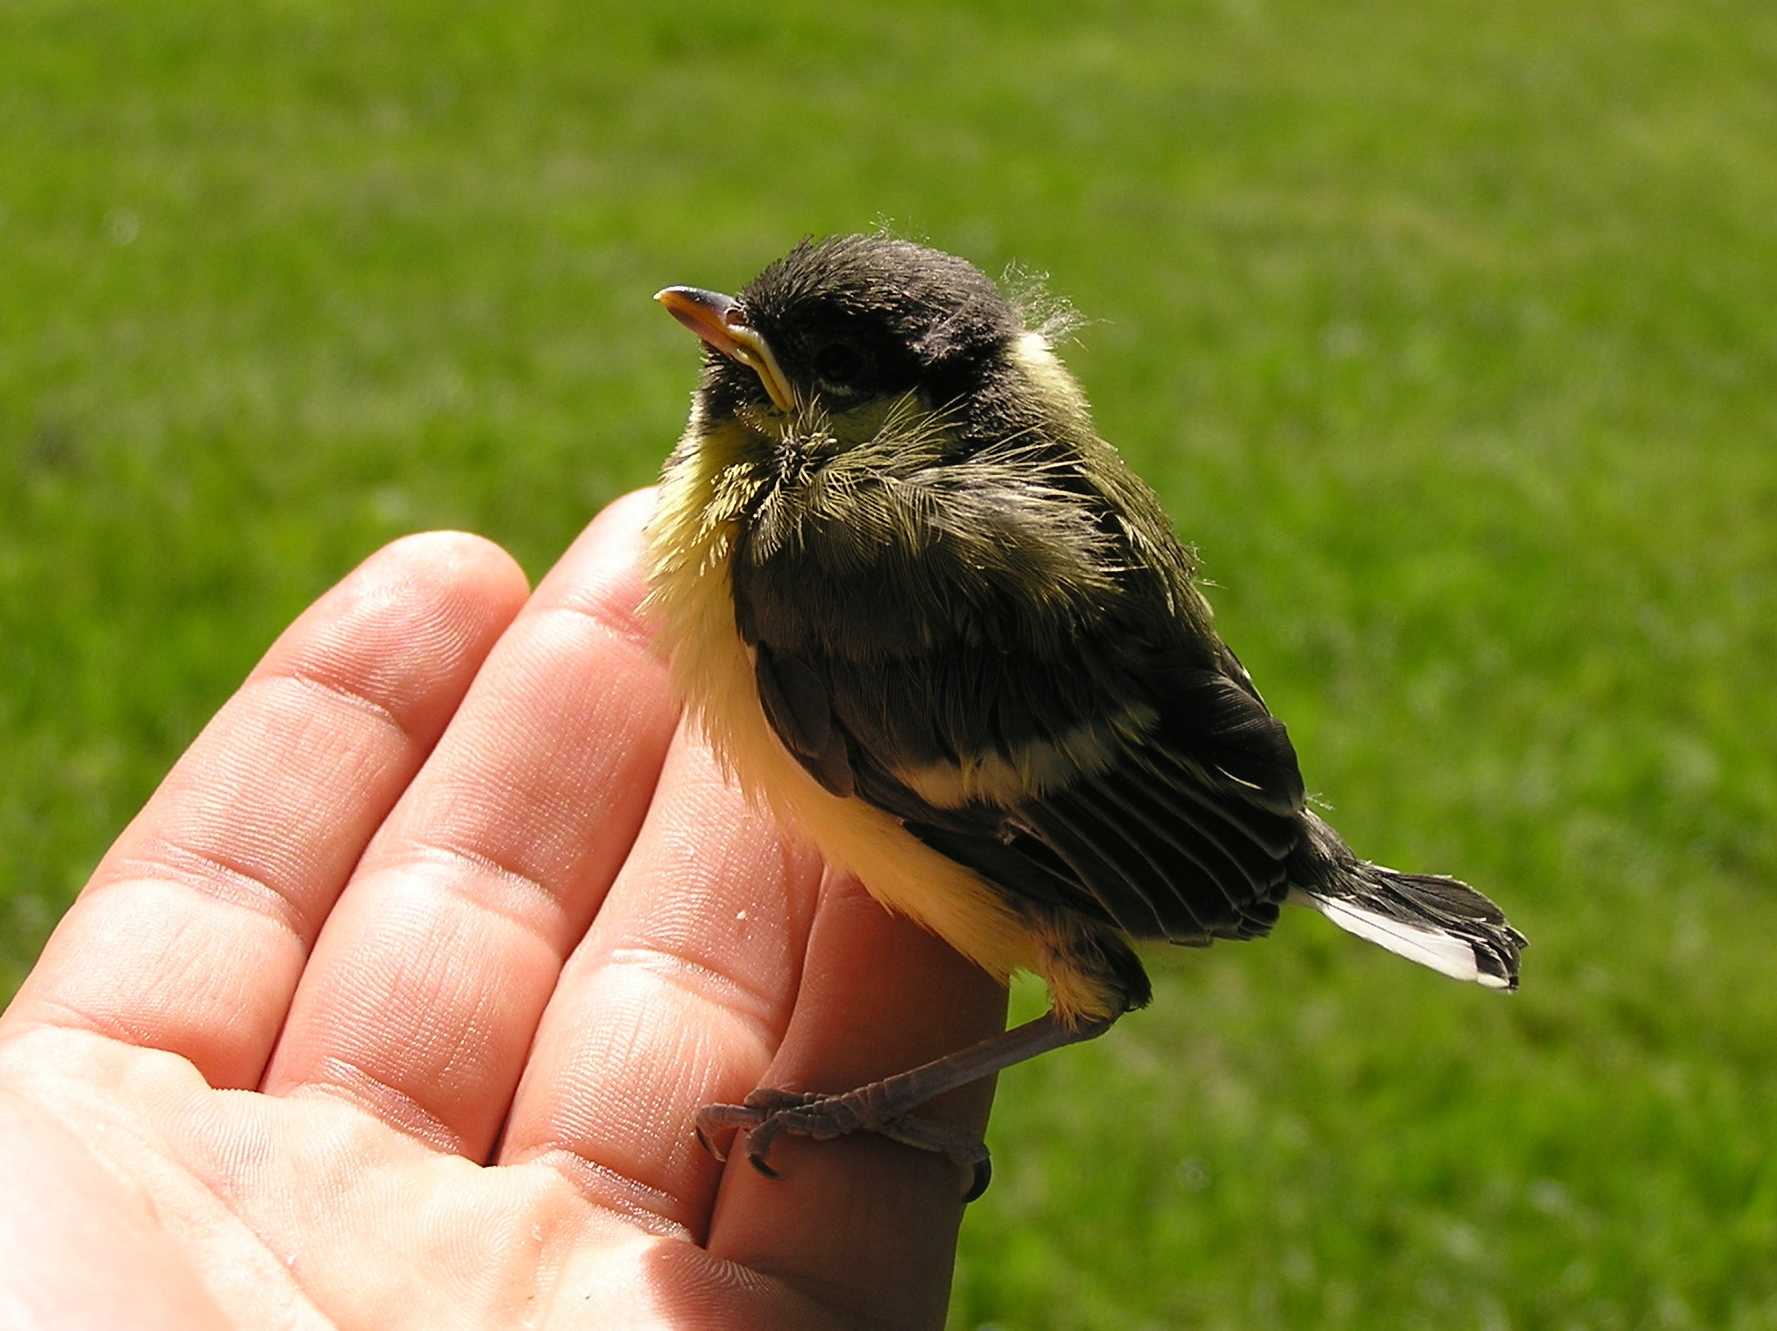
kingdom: Animalia
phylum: Chordata
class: Aves
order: Passeriformes
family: Paridae
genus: Parus
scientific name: Parus major
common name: Great tit
